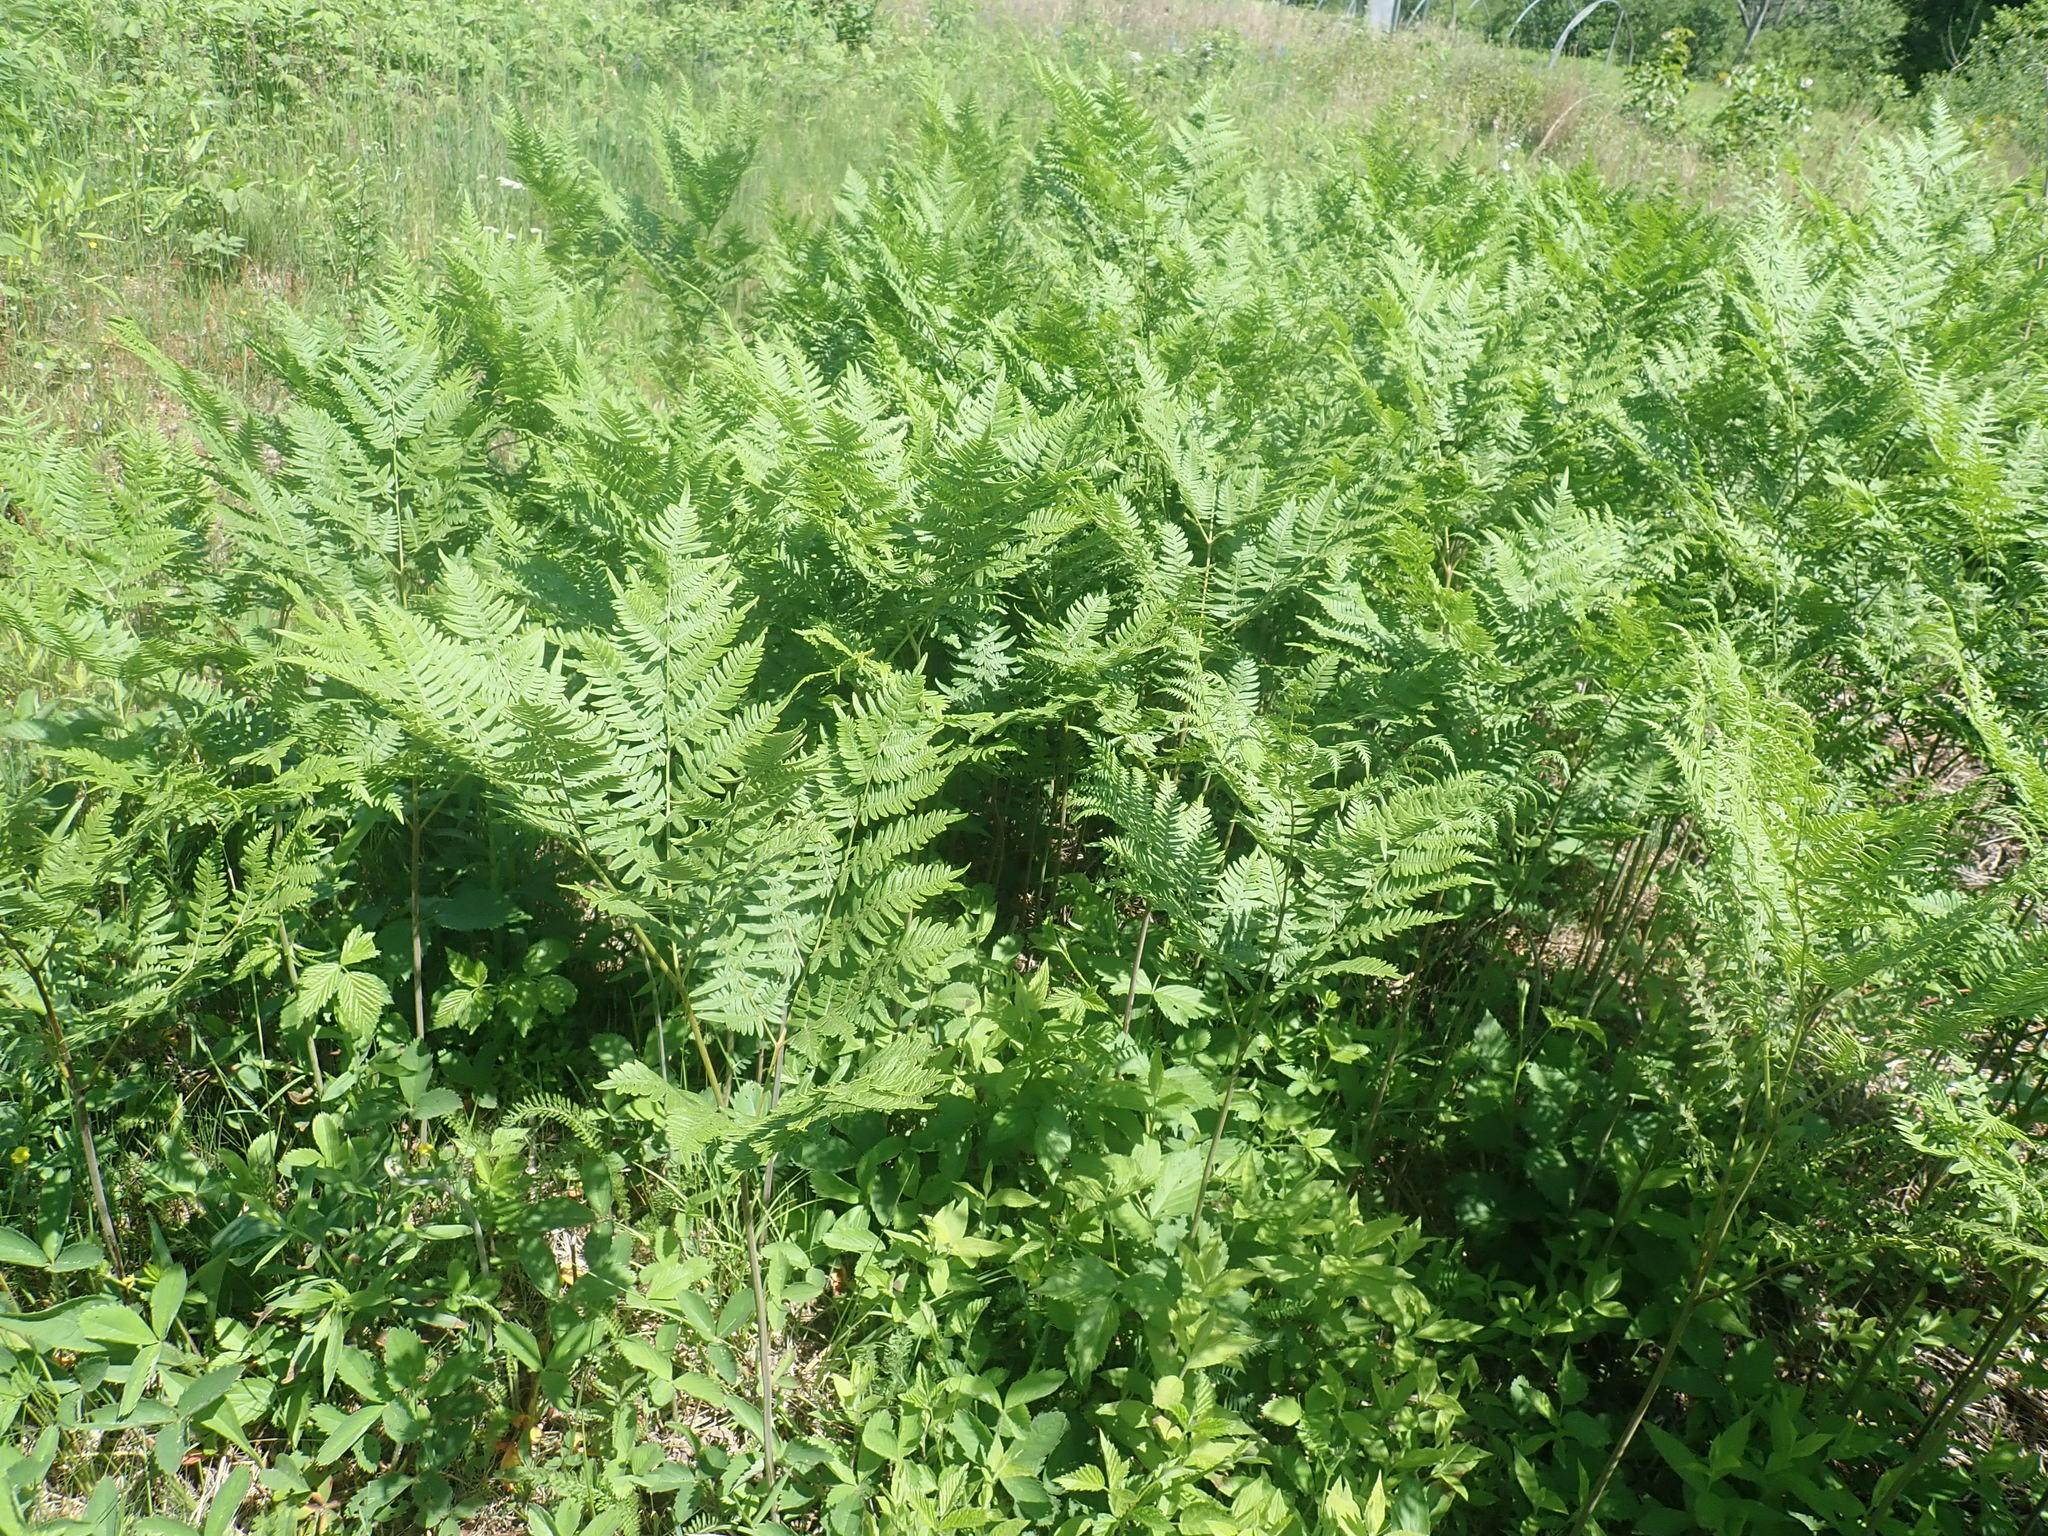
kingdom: Plantae
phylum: Tracheophyta
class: Polypodiopsida
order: Polypodiales
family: Dennstaedtiaceae
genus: Pteridium
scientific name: Pteridium aquilinum
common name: Bracken
